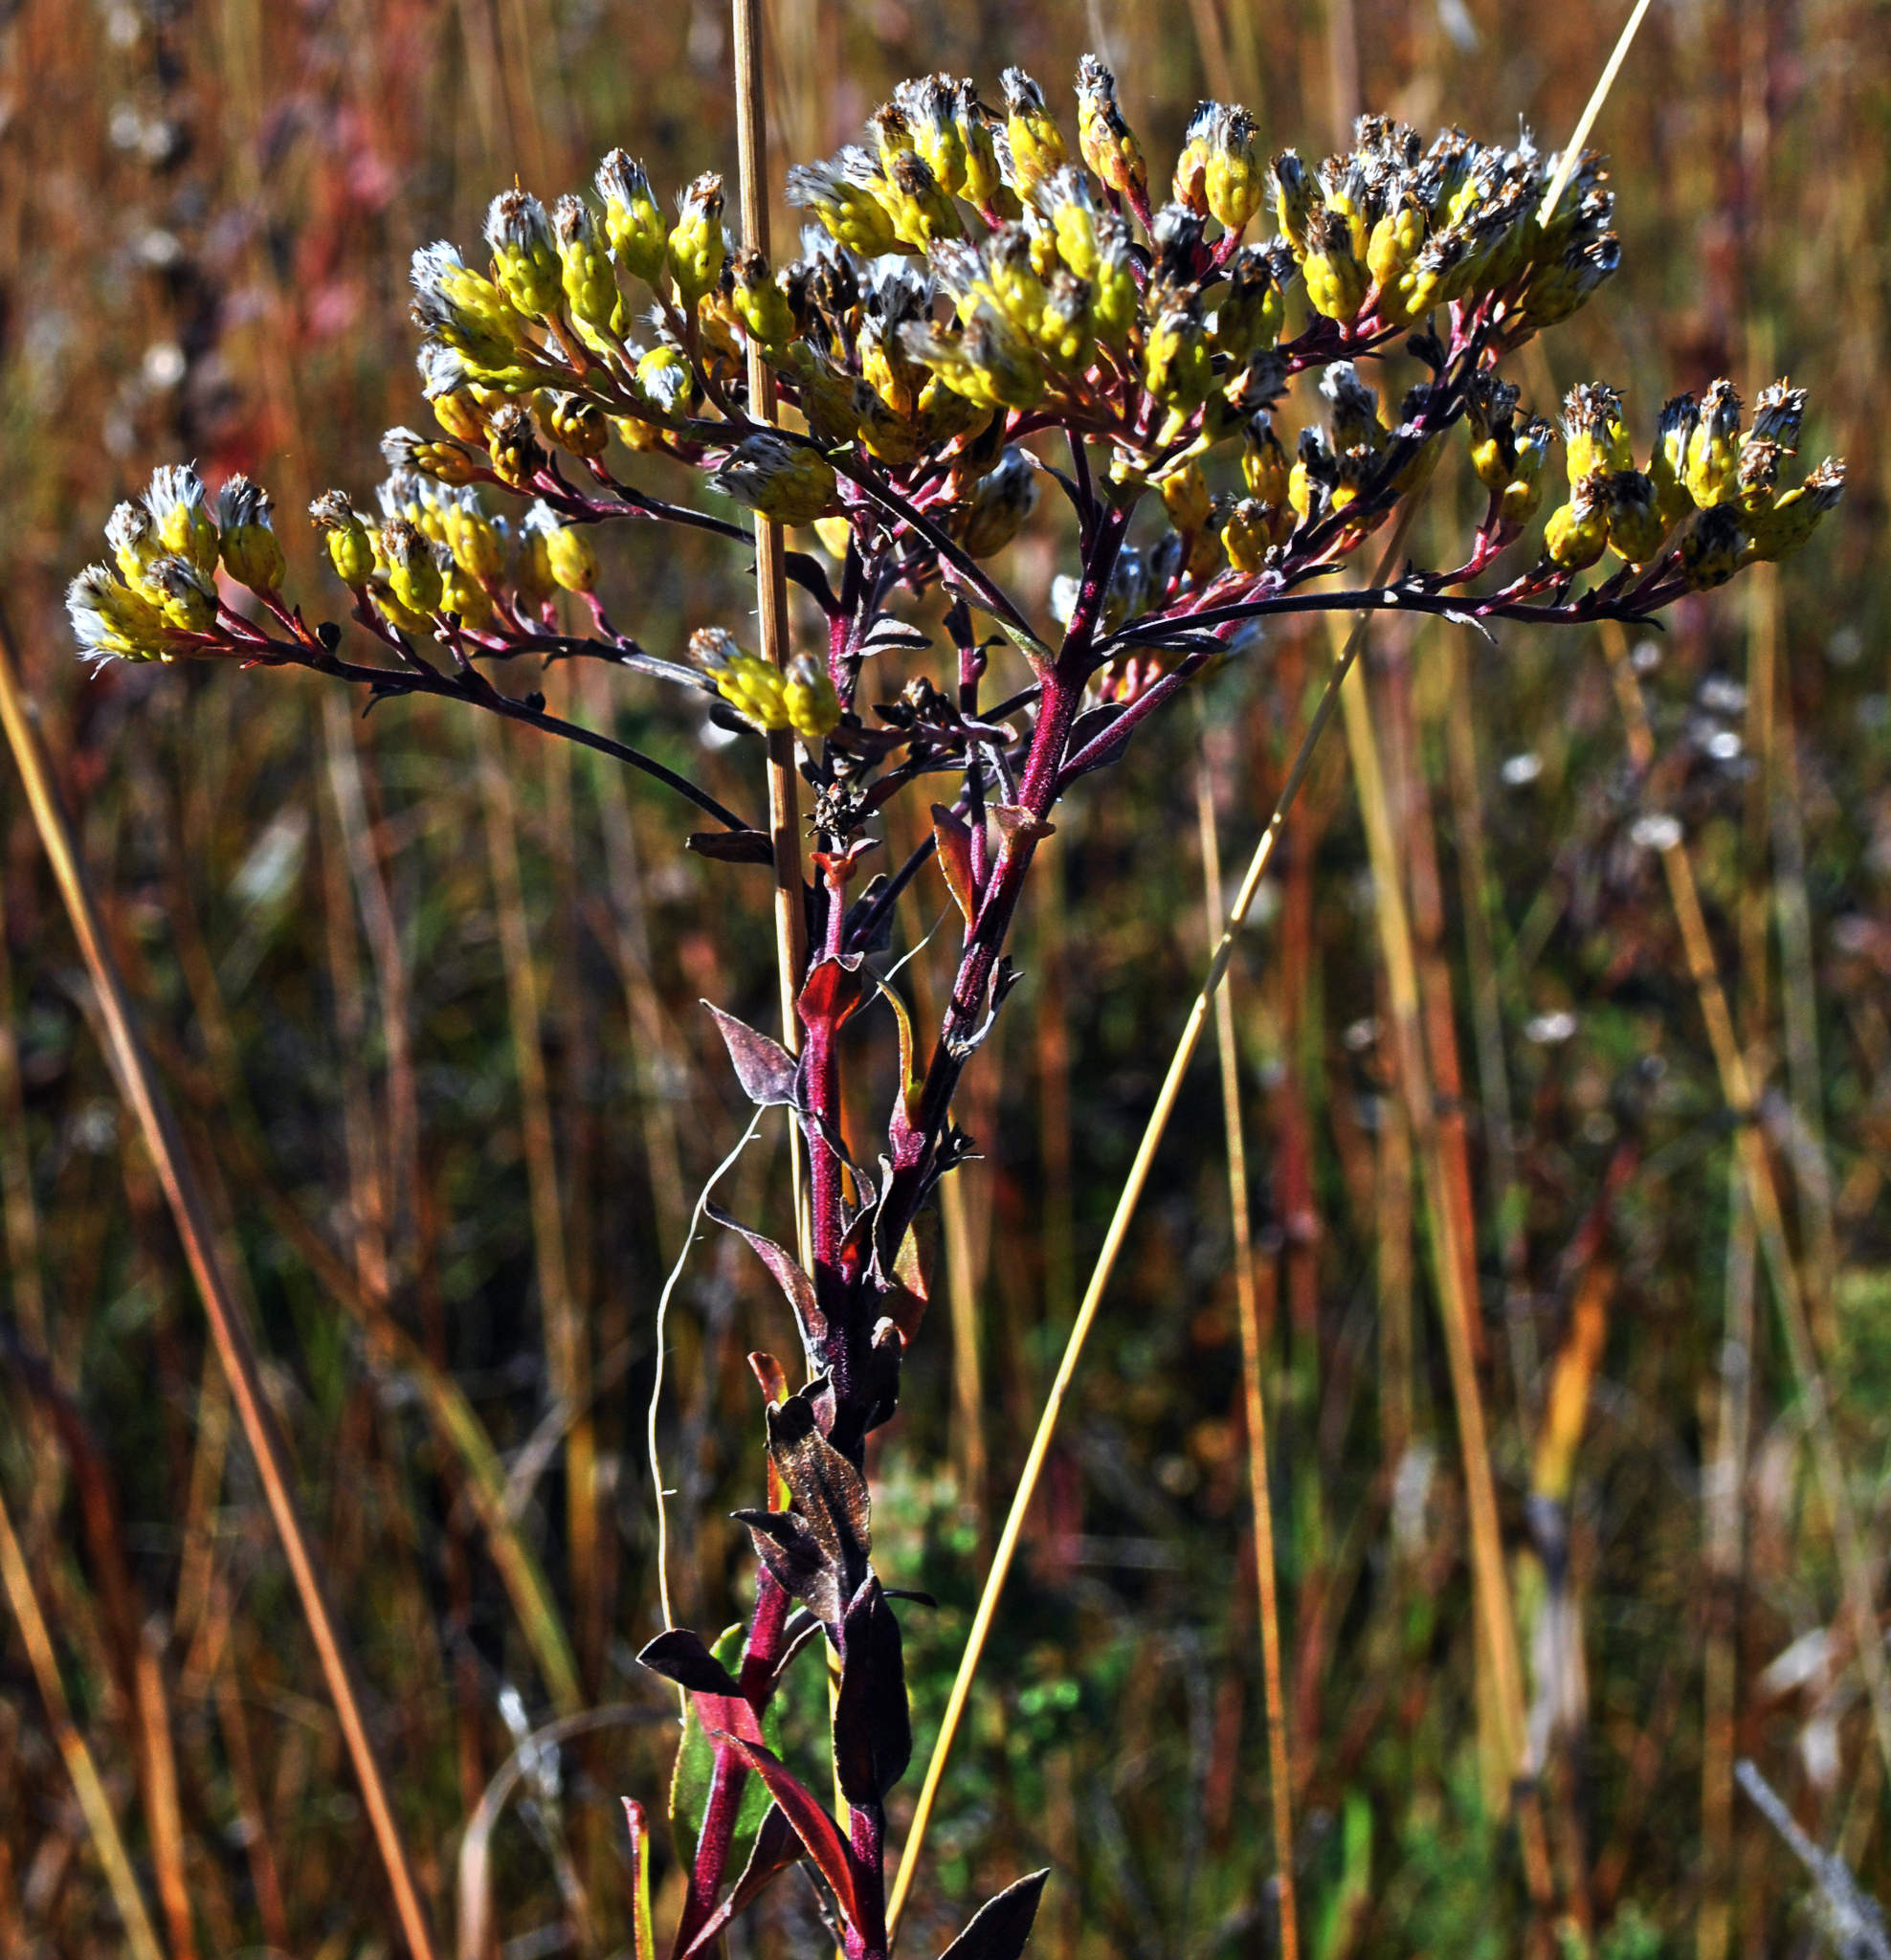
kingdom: Plantae
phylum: Tracheophyta
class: Magnoliopsida
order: Asterales
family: Asteraceae
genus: Solidago
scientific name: Solidago rigida
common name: Rigid goldenrod
